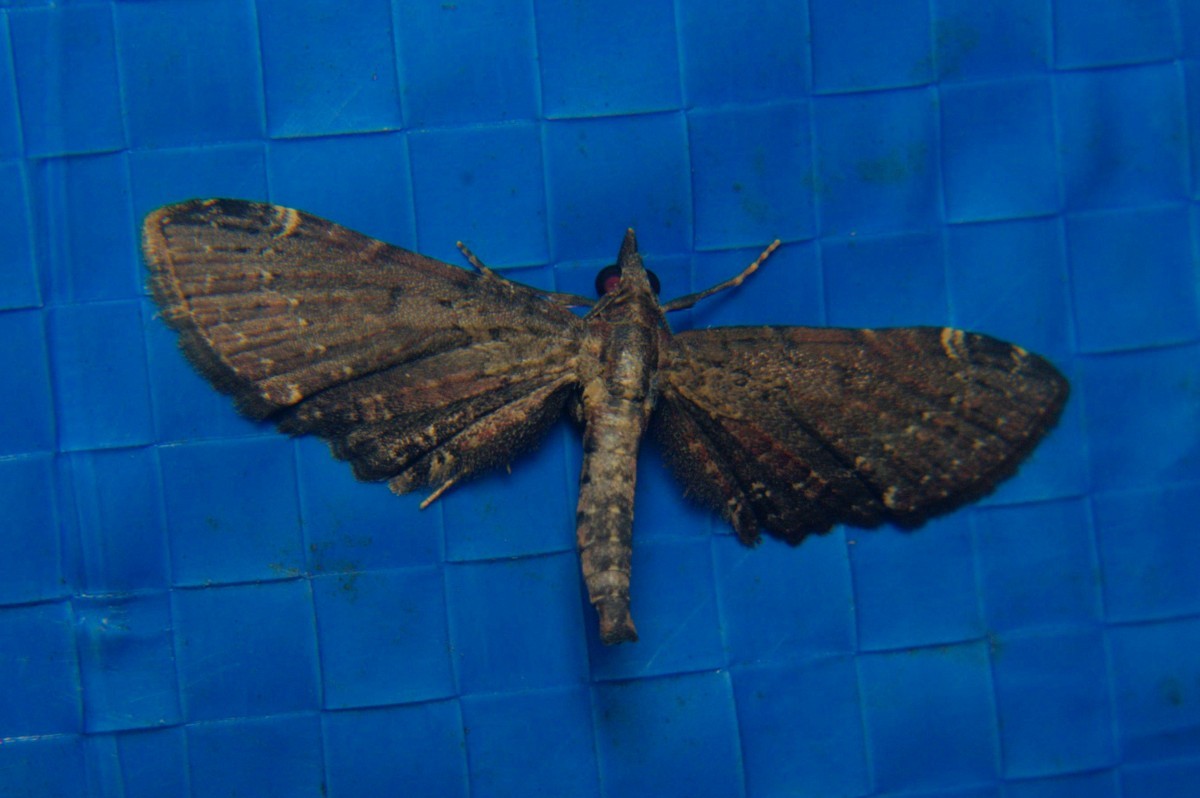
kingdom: Animalia
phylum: Arthropoda
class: Insecta
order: Lepidoptera
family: Geometridae
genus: Eupithecia
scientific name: Eupithecia rigida
